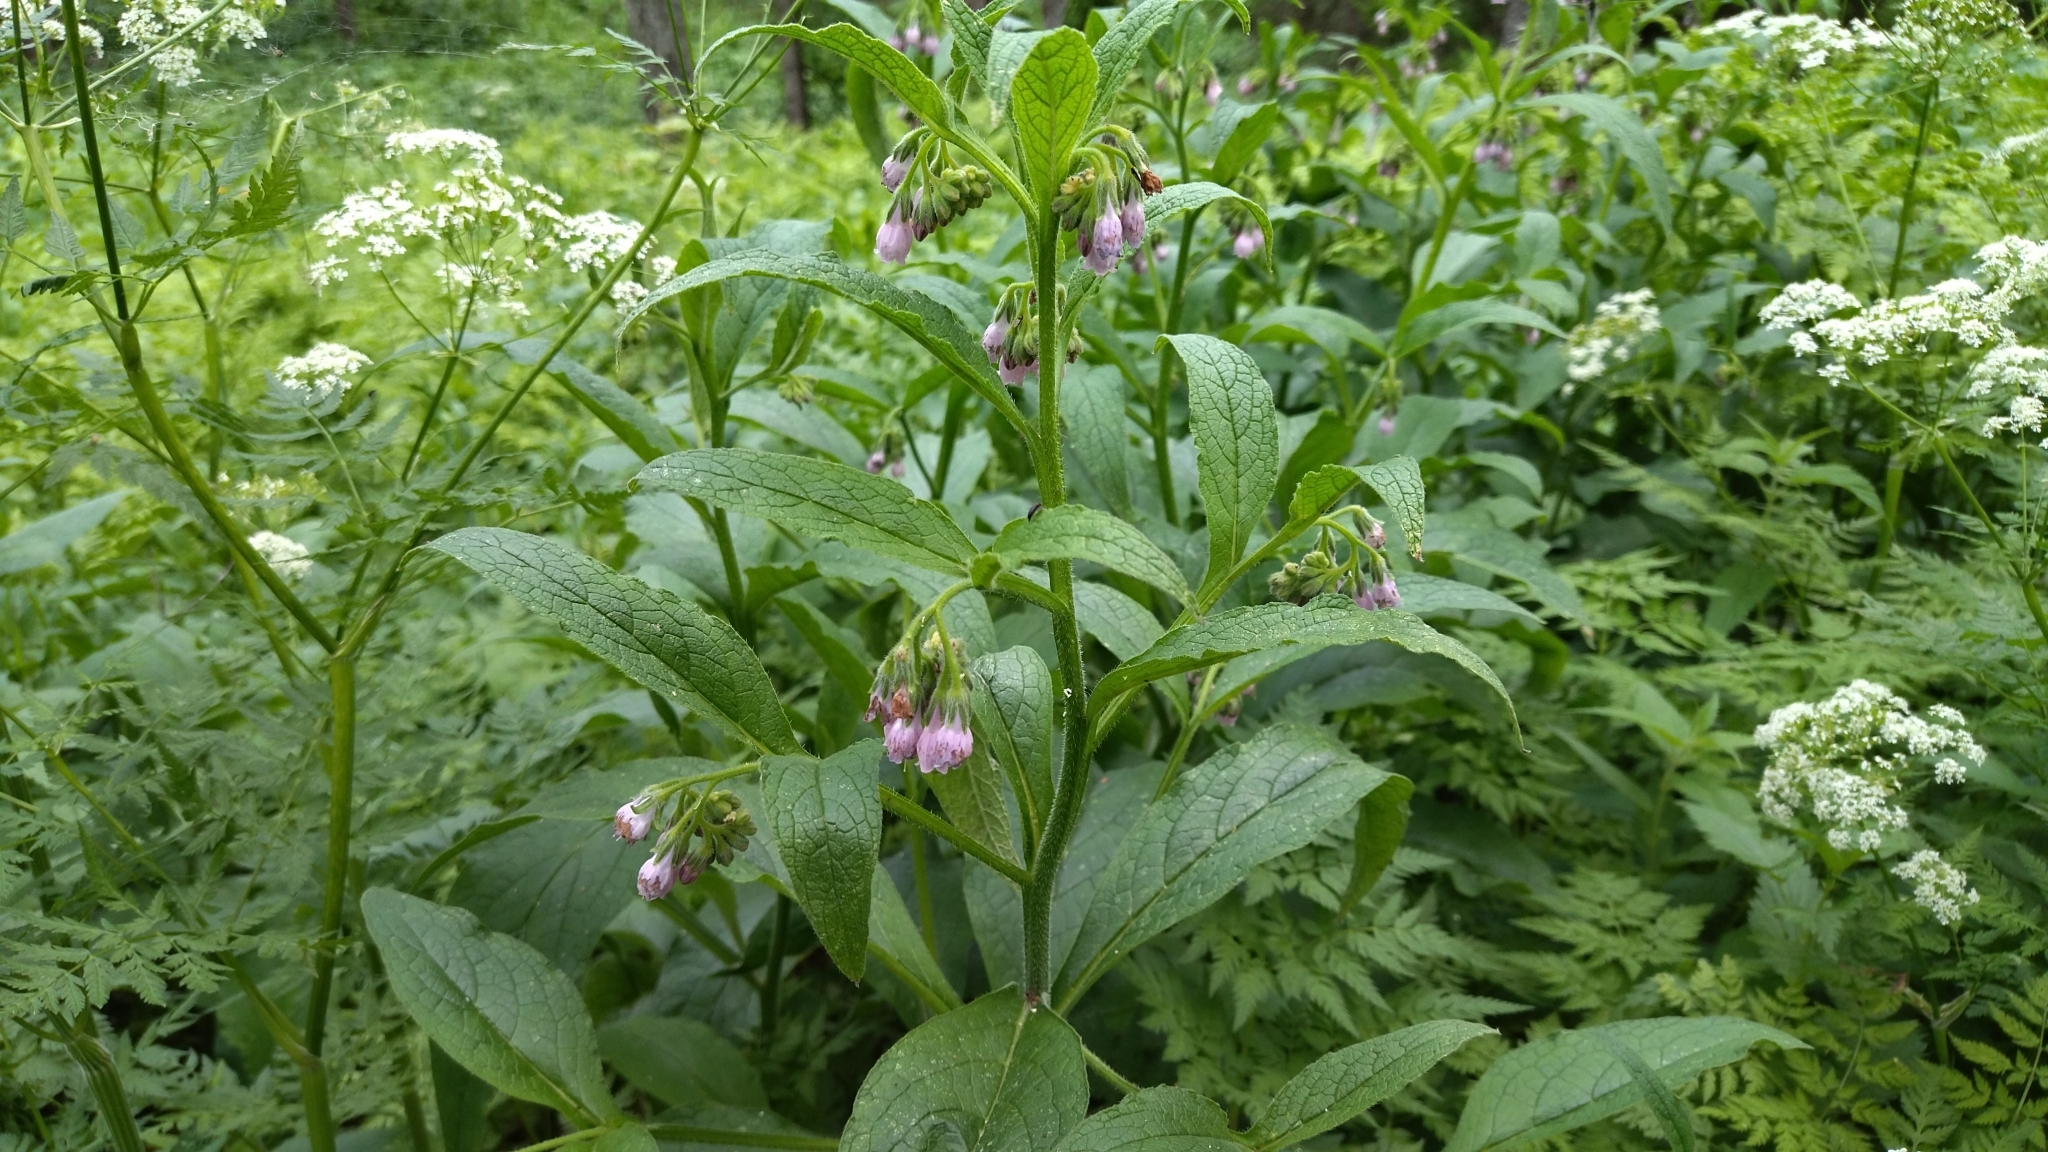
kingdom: Plantae
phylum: Tracheophyta
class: Magnoliopsida
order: Boraginales
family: Boraginaceae
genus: Symphytum
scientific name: Symphytum uplandicum
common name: Russian comfrey
